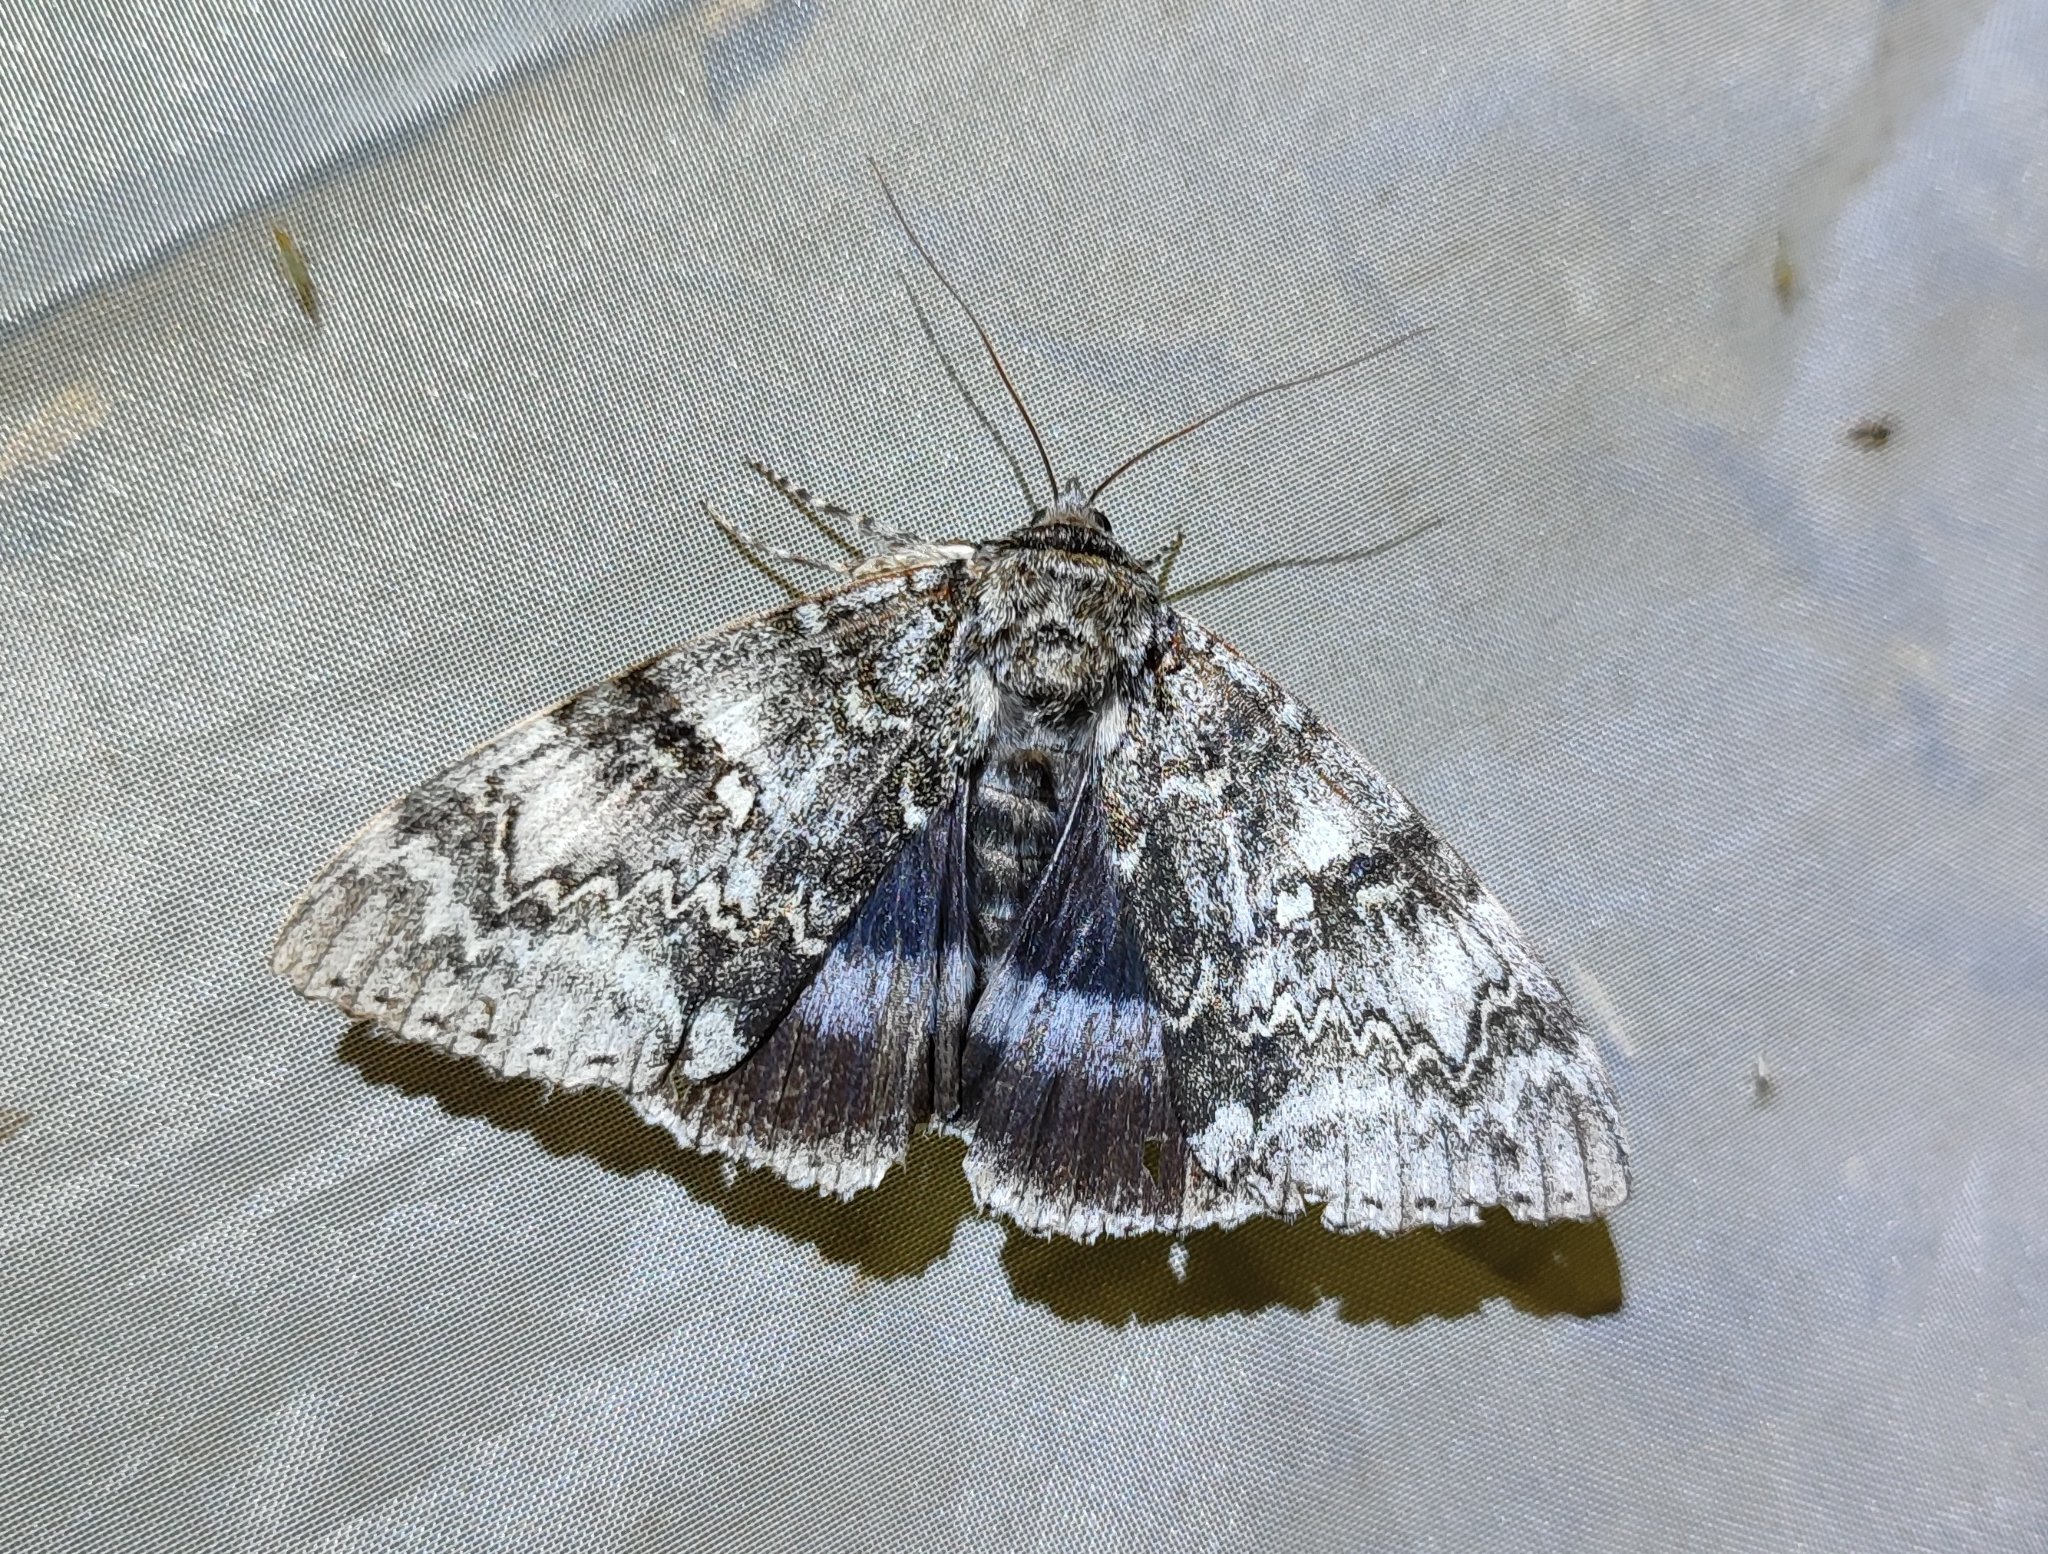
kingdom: Animalia
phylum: Arthropoda
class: Insecta
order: Lepidoptera
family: Erebidae
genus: Catocala
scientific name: Catocala fraxini
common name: Clifden nonpareil
